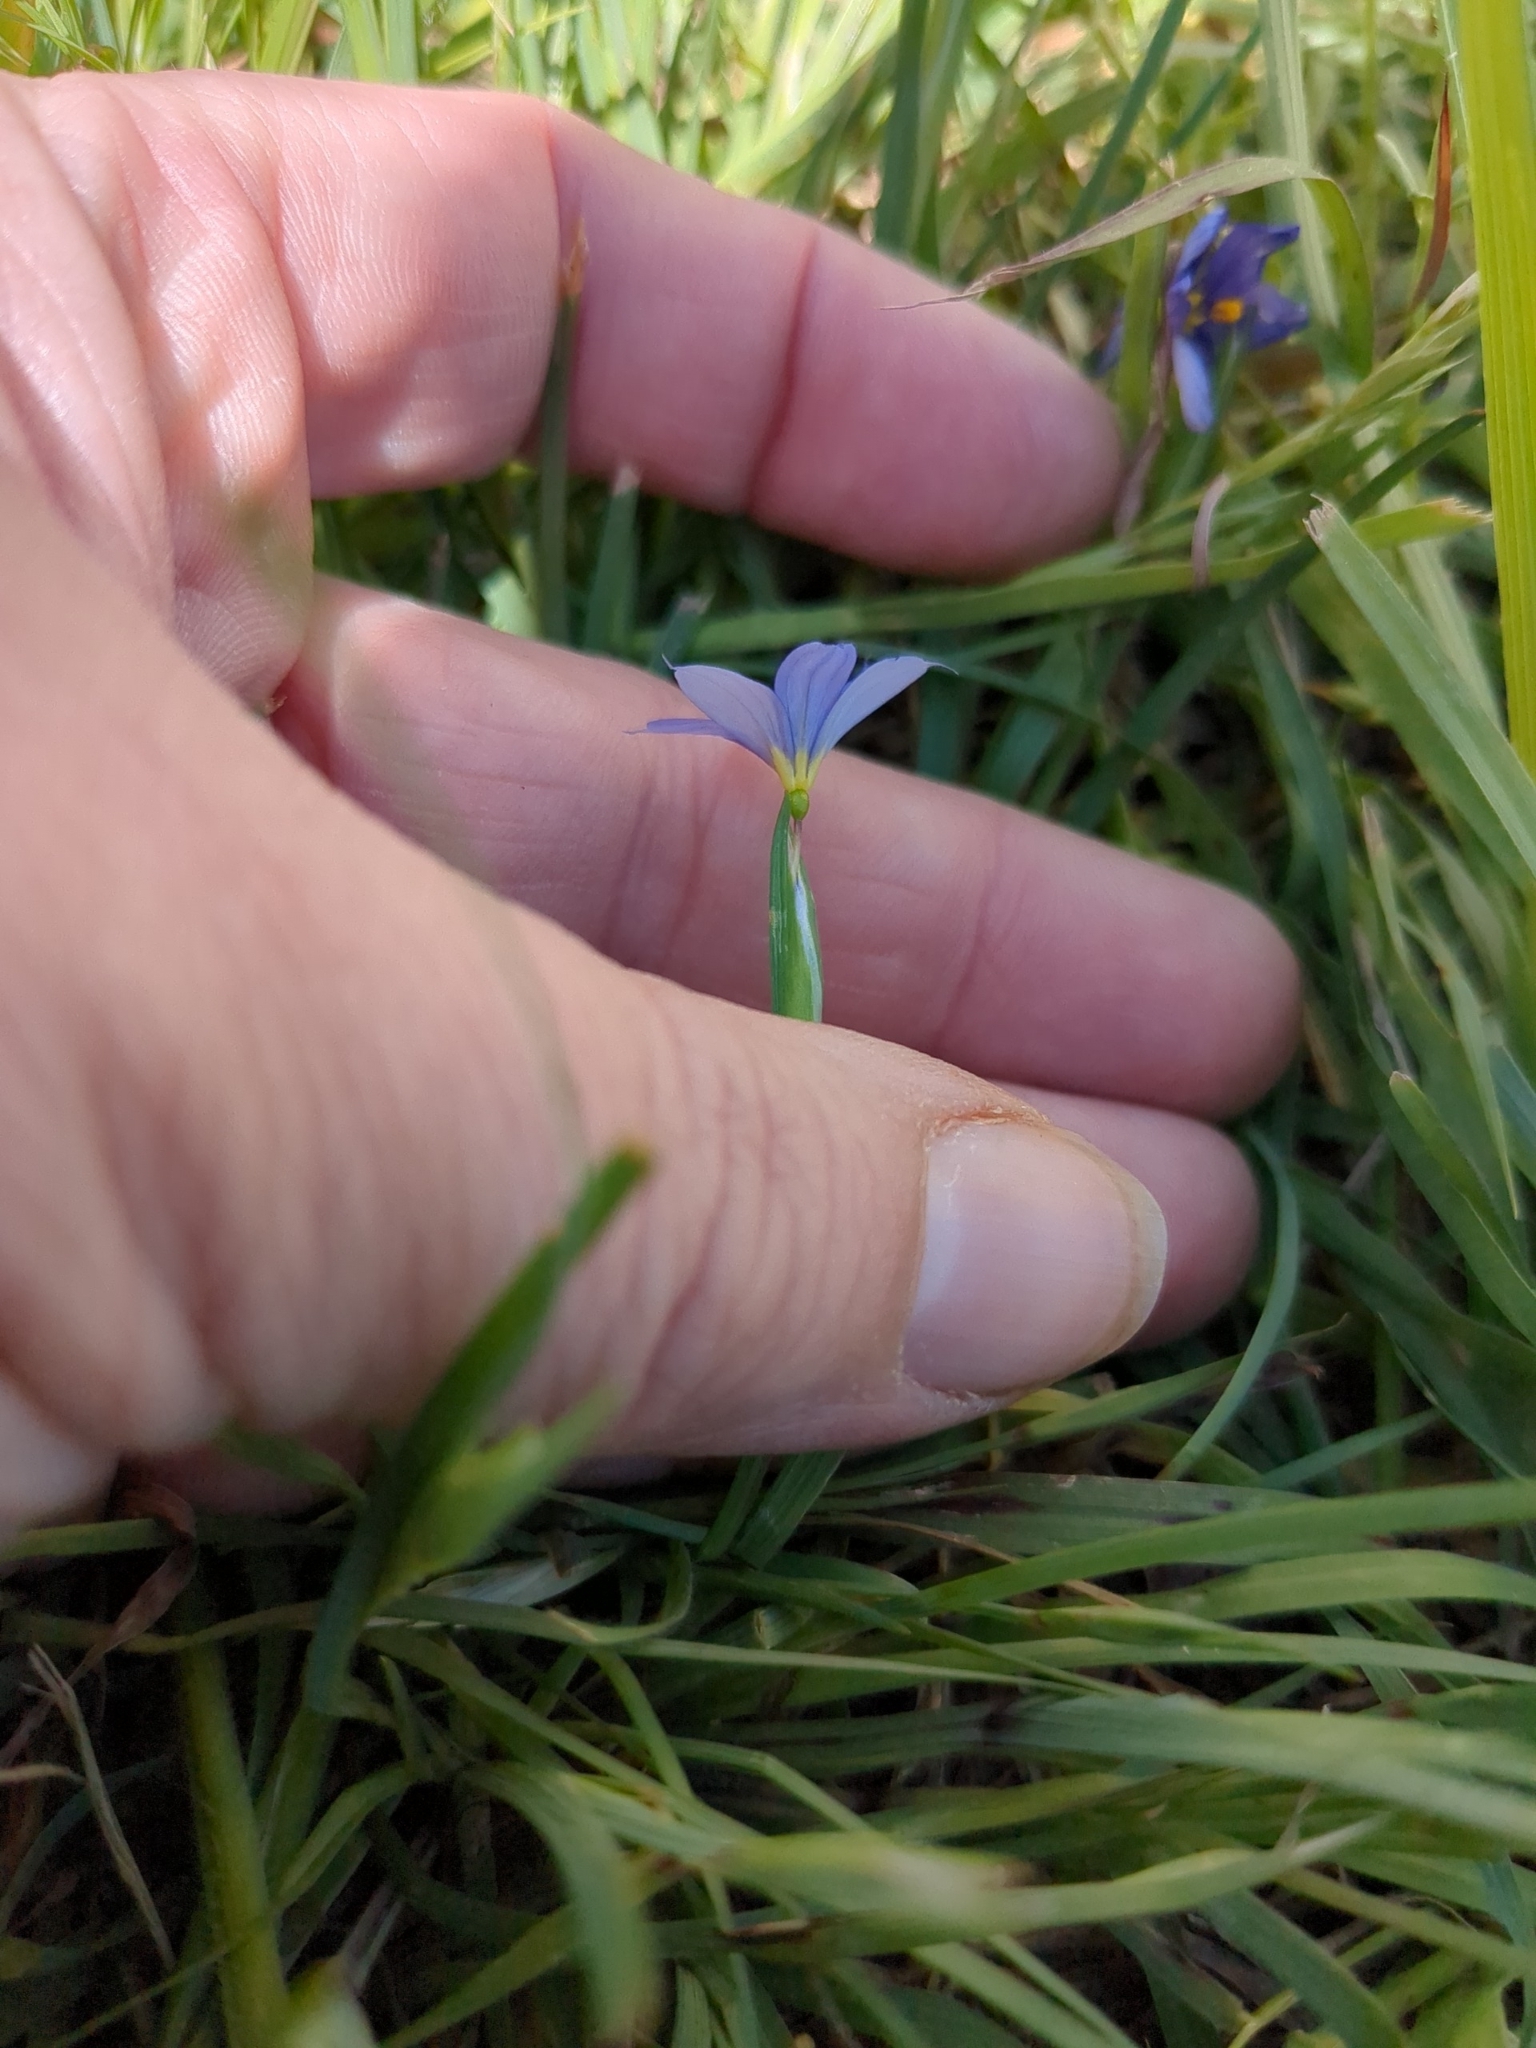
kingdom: Plantae
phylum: Tracheophyta
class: Liliopsida
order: Asparagales
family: Iridaceae
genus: Sisyrinchium
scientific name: Sisyrinchium pruinosum
